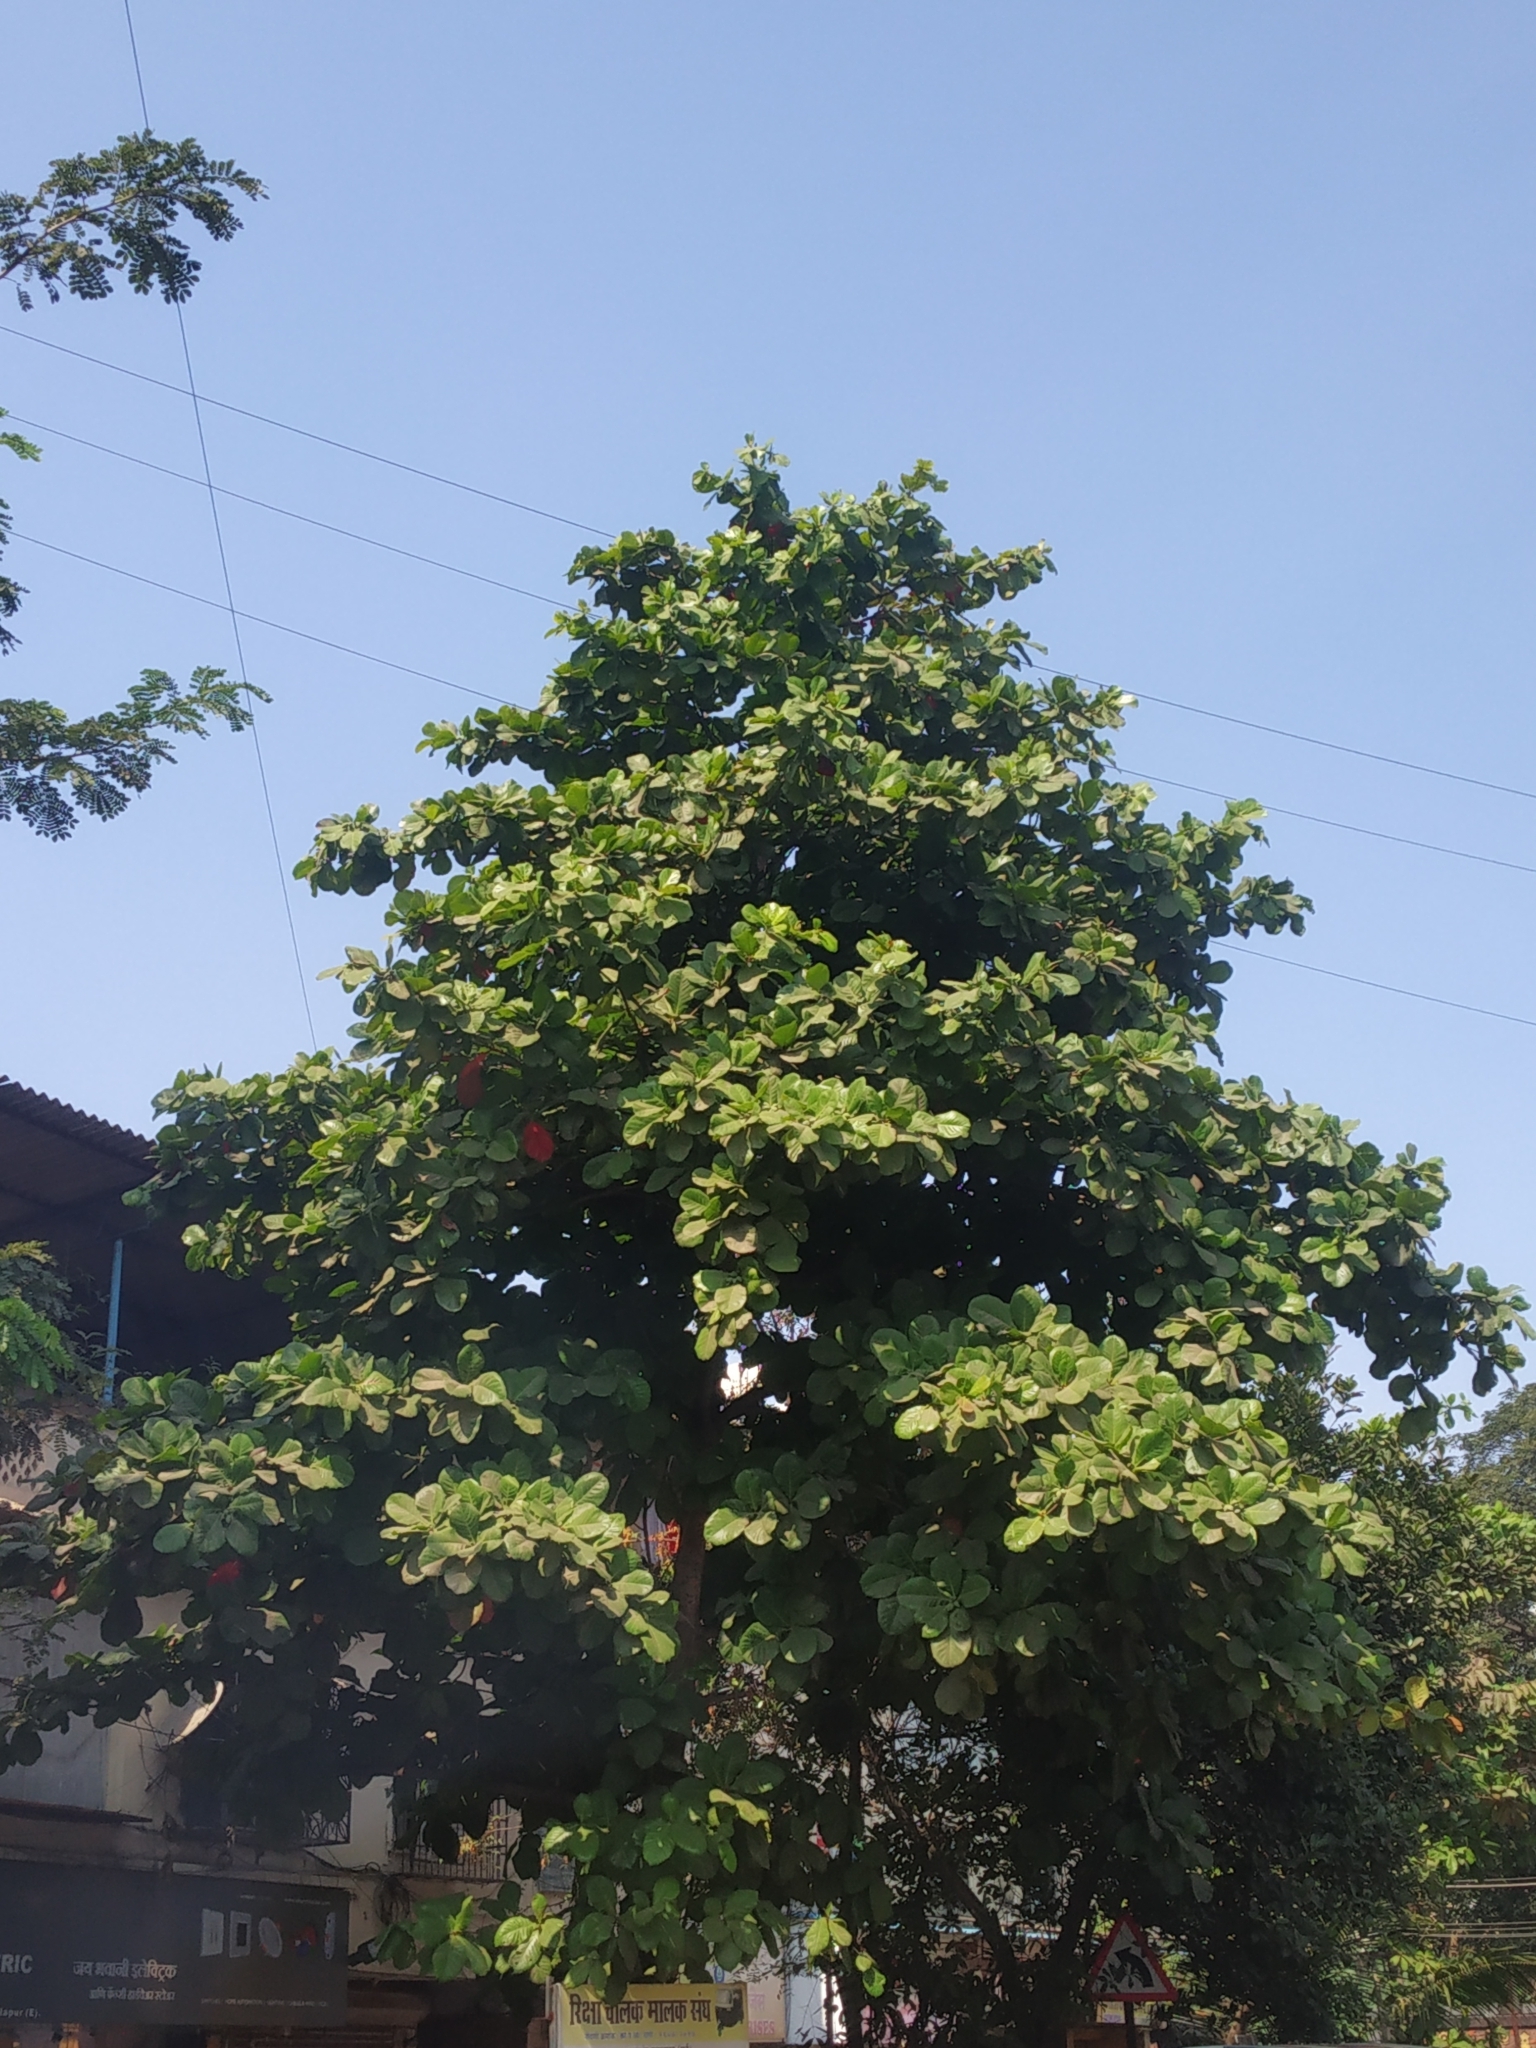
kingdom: Plantae
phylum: Tracheophyta
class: Magnoliopsida
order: Myrtales
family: Combretaceae
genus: Terminalia
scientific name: Terminalia catappa
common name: Tropical almond
